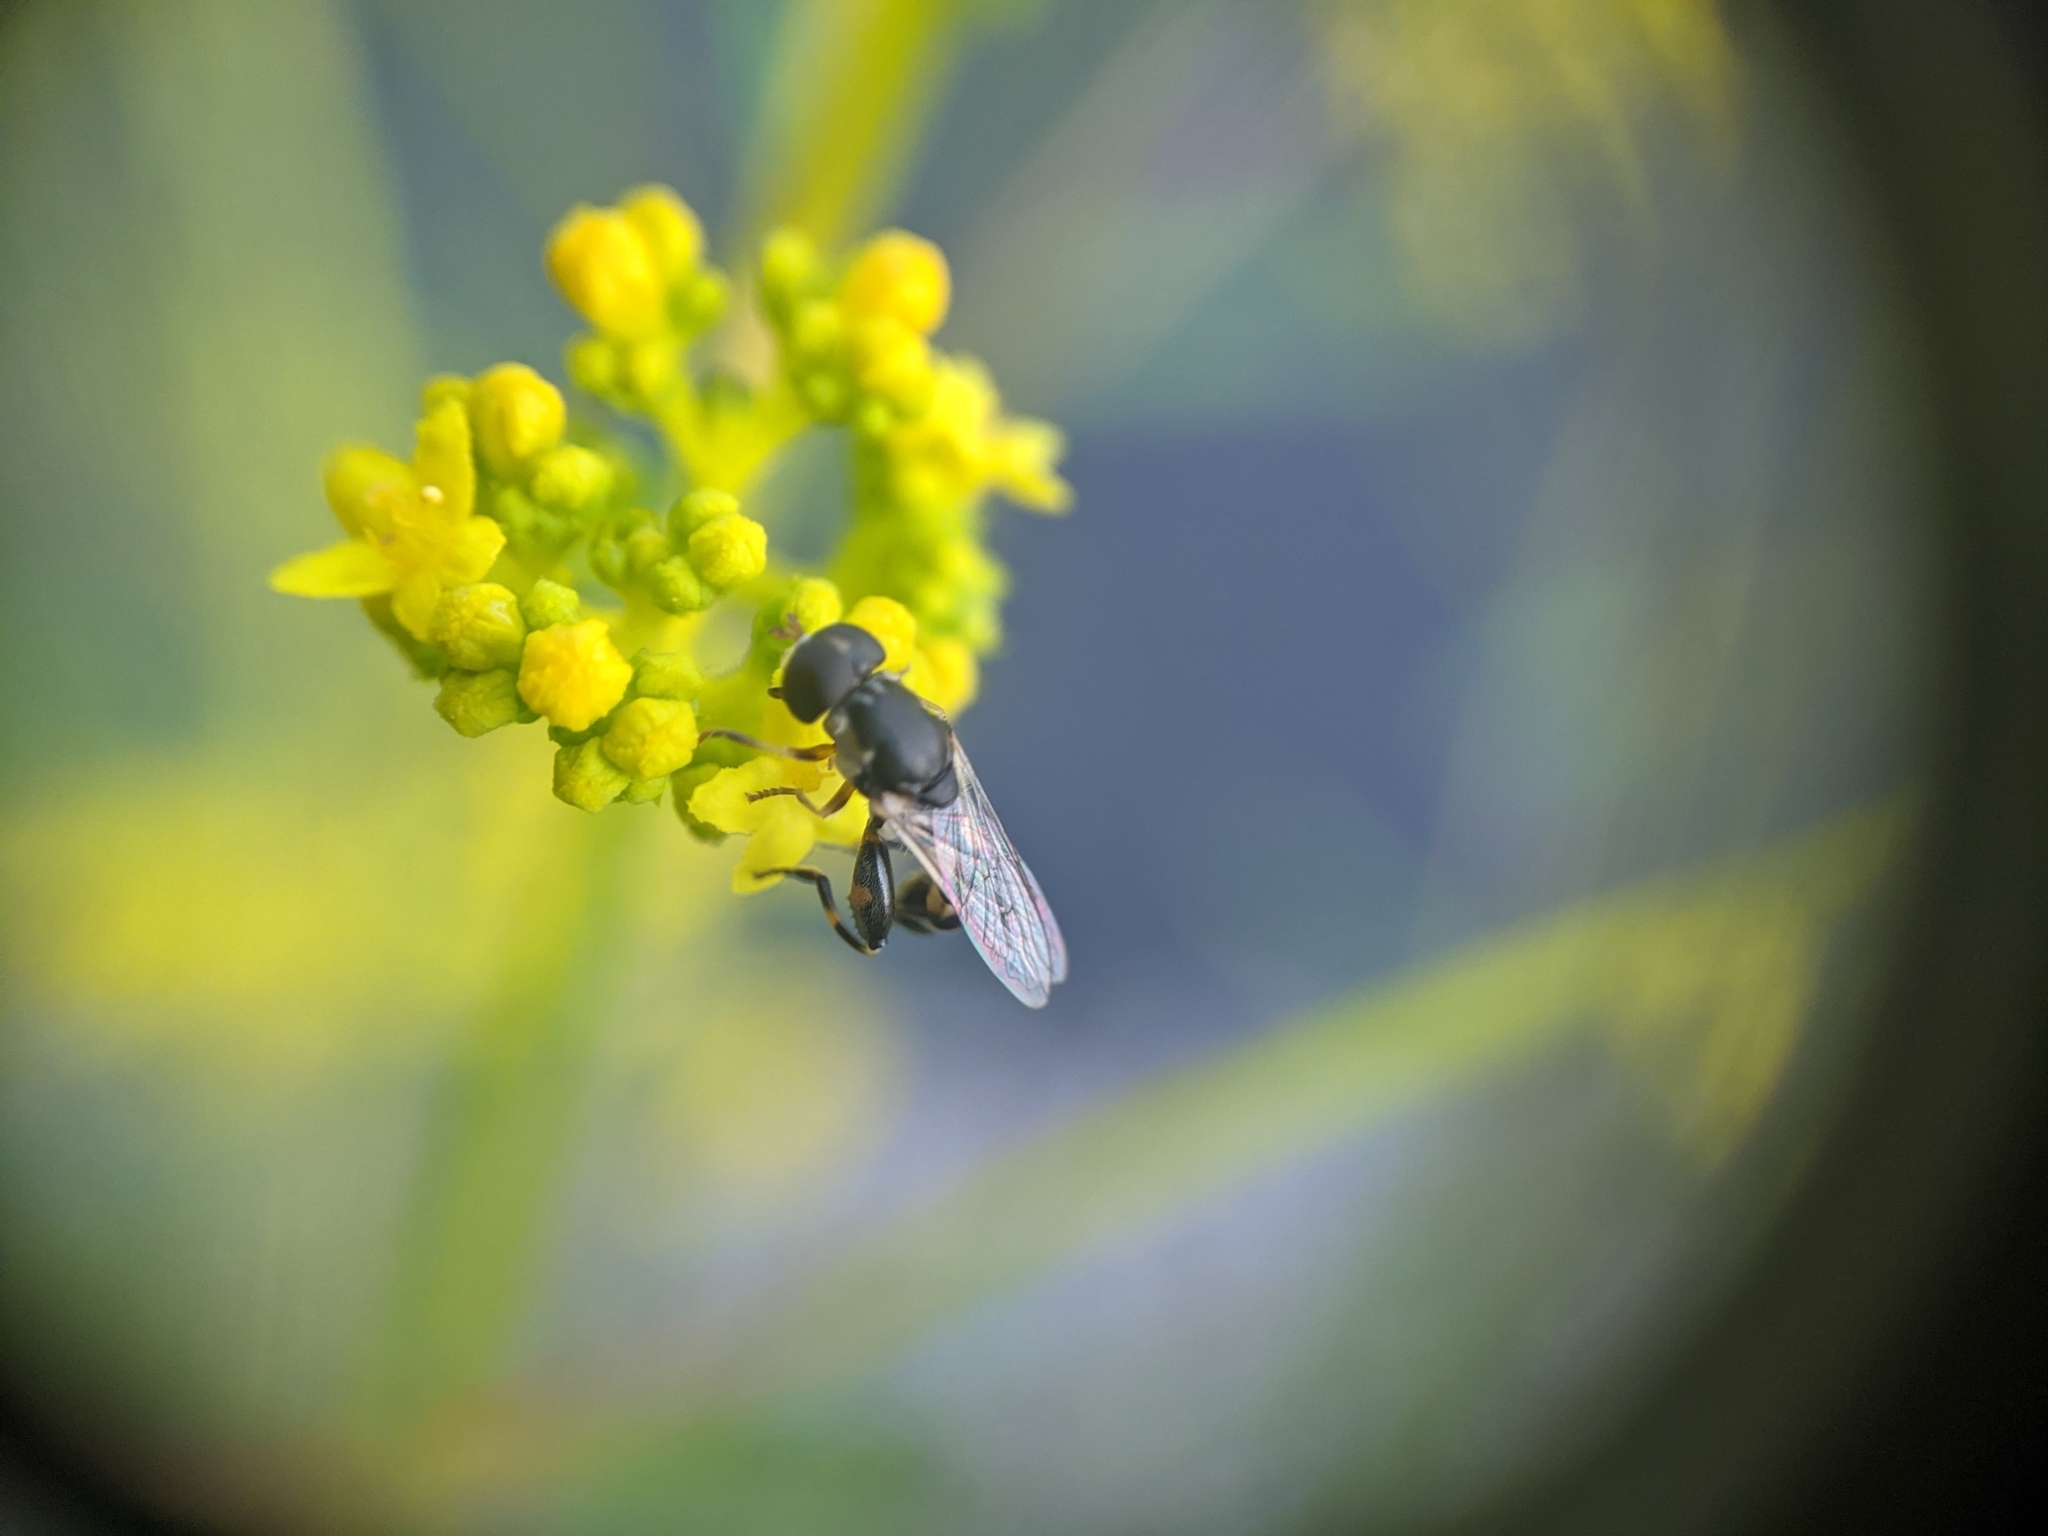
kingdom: Animalia
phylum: Arthropoda
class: Insecta
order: Diptera
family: Syrphidae
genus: Syritta
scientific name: Syritta pipiens
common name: Hover fly
